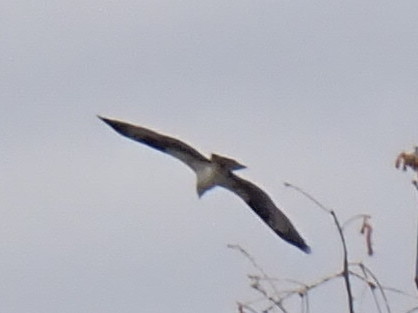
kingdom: Animalia
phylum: Chordata
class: Aves
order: Accipitriformes
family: Pandionidae
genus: Pandion
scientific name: Pandion haliaetus
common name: Osprey
